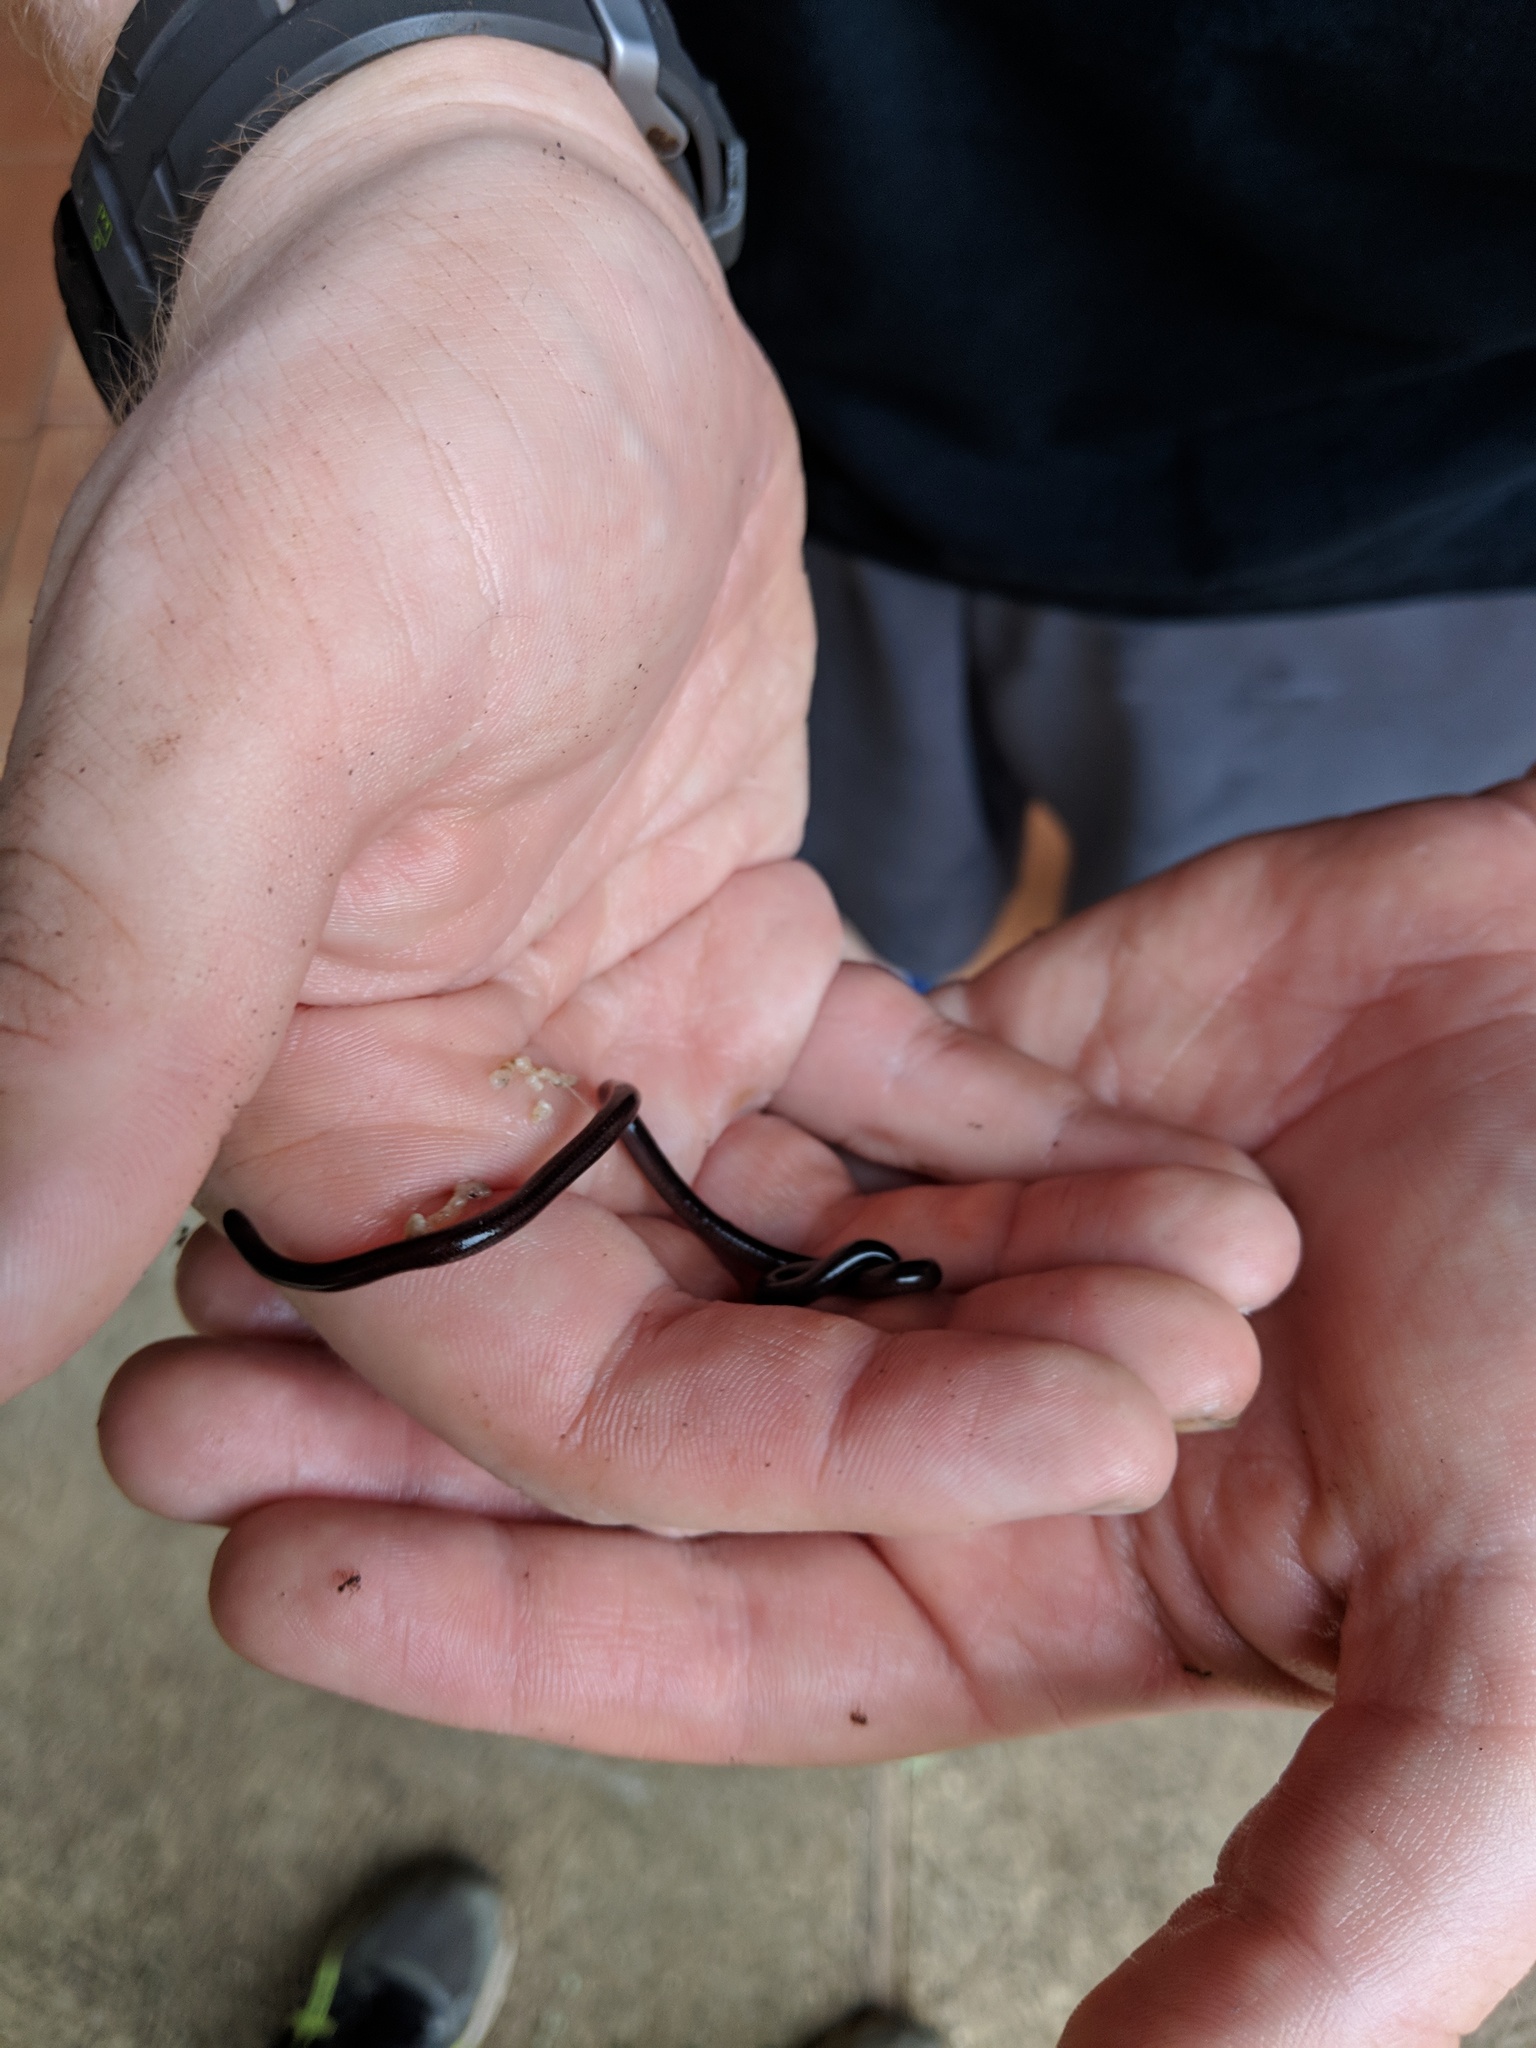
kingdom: Animalia
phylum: Chordata
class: Squamata
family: Leptotyphlopidae
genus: Epictia
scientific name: Epictia ater
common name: Black blind snake
